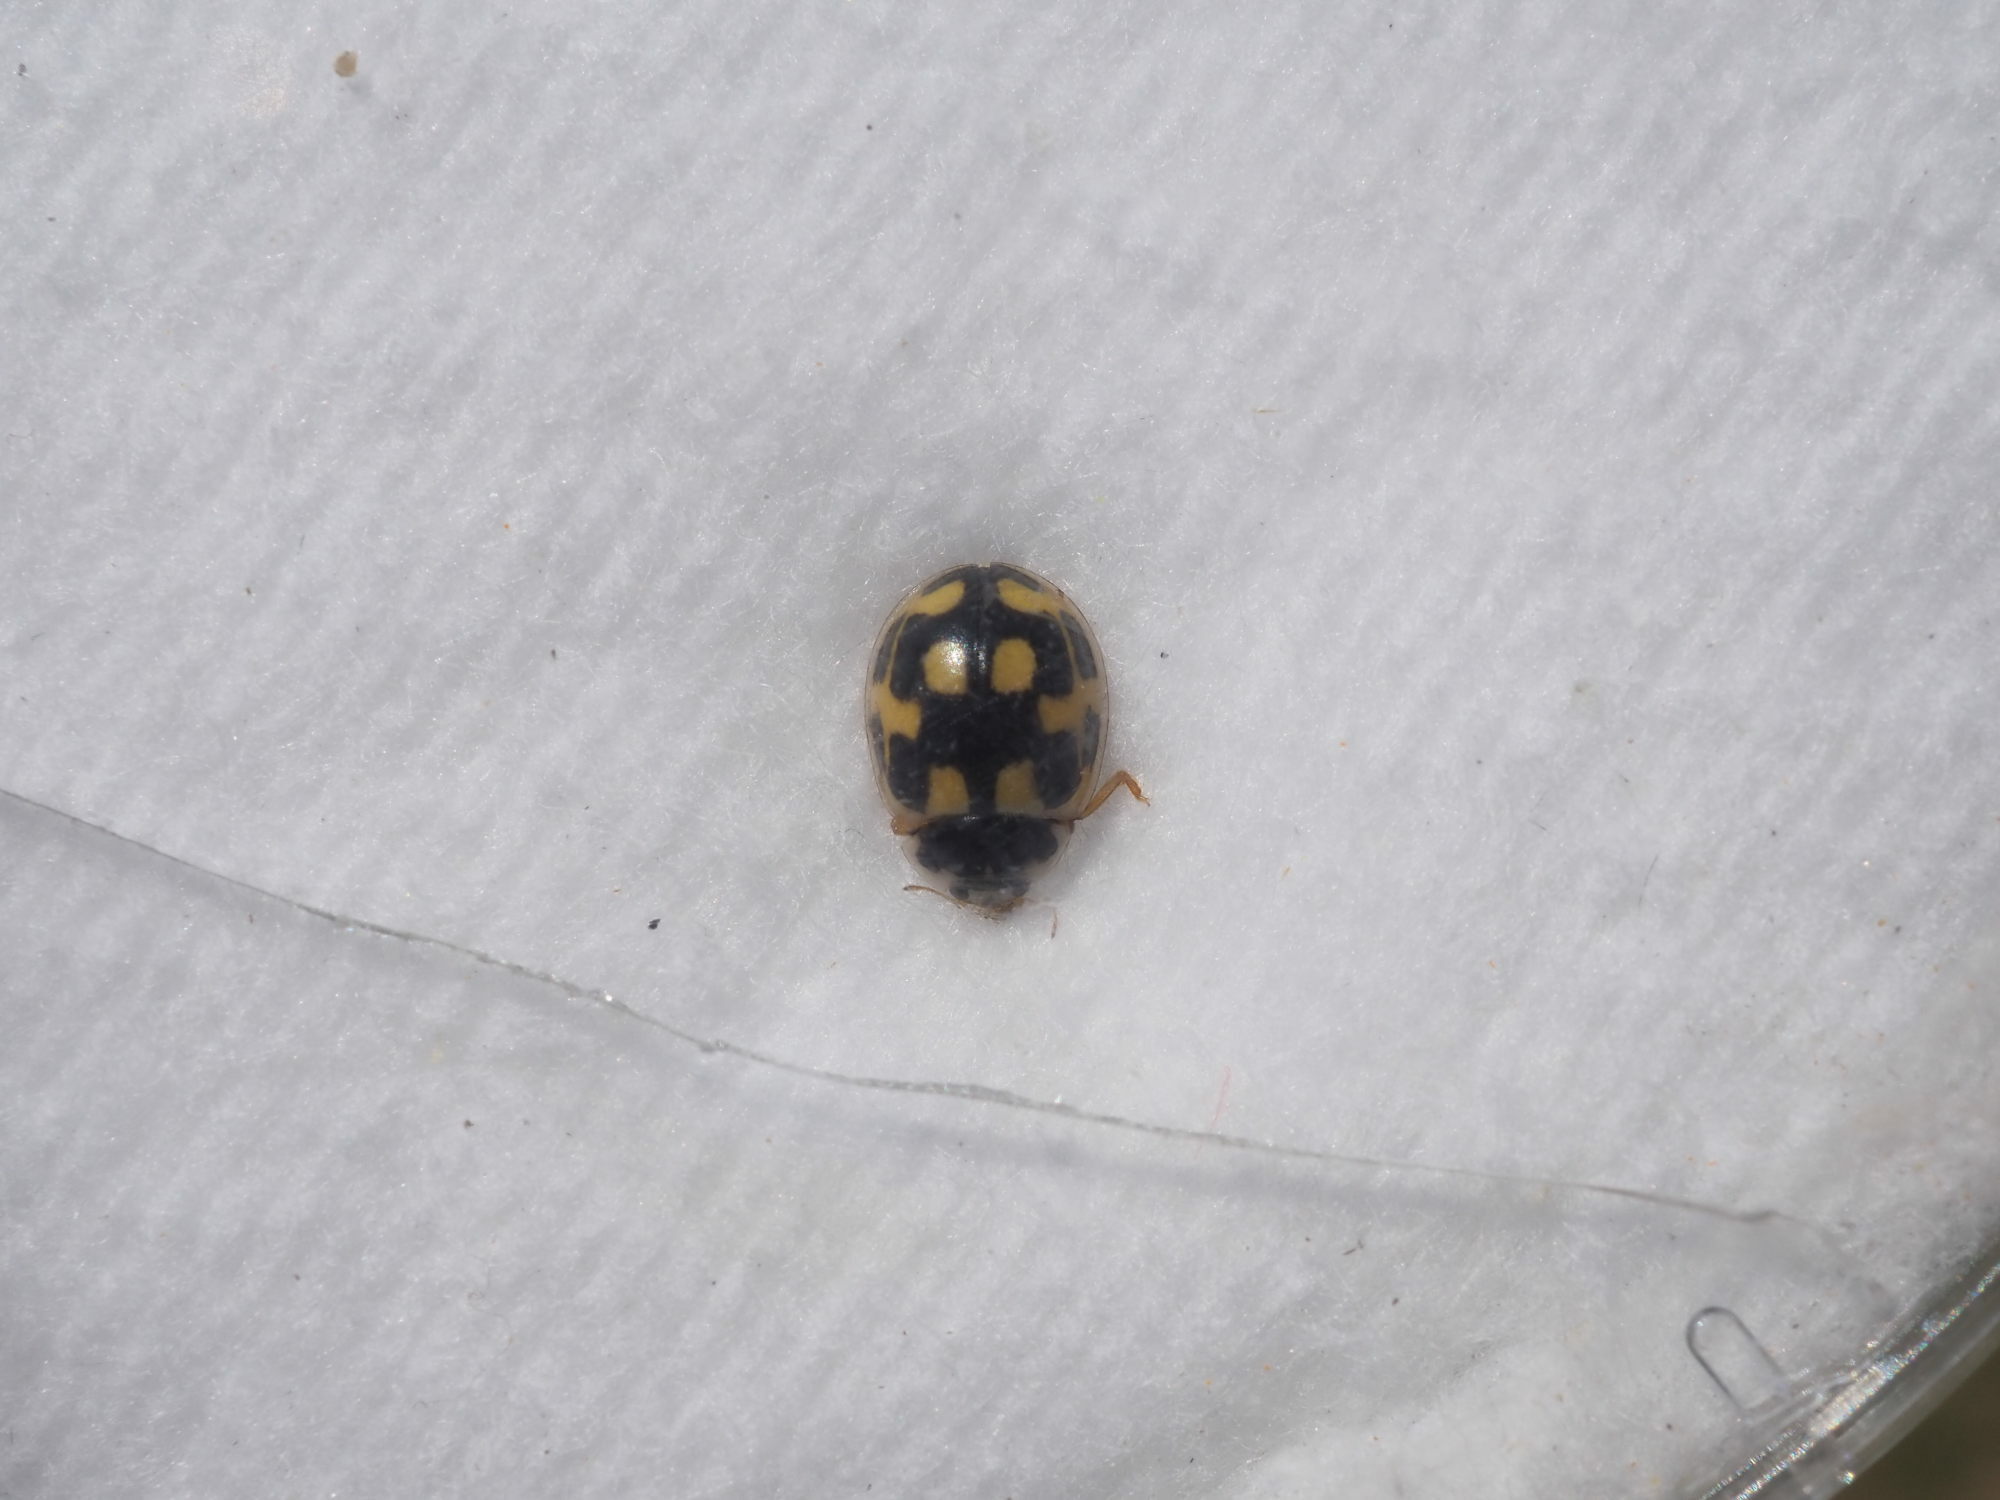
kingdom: Animalia
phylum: Arthropoda
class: Insecta
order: Coleoptera
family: Coccinellidae
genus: Propylaea
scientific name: Propylaea quatuordecimpunctata
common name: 14-spotted ladybird beetle
